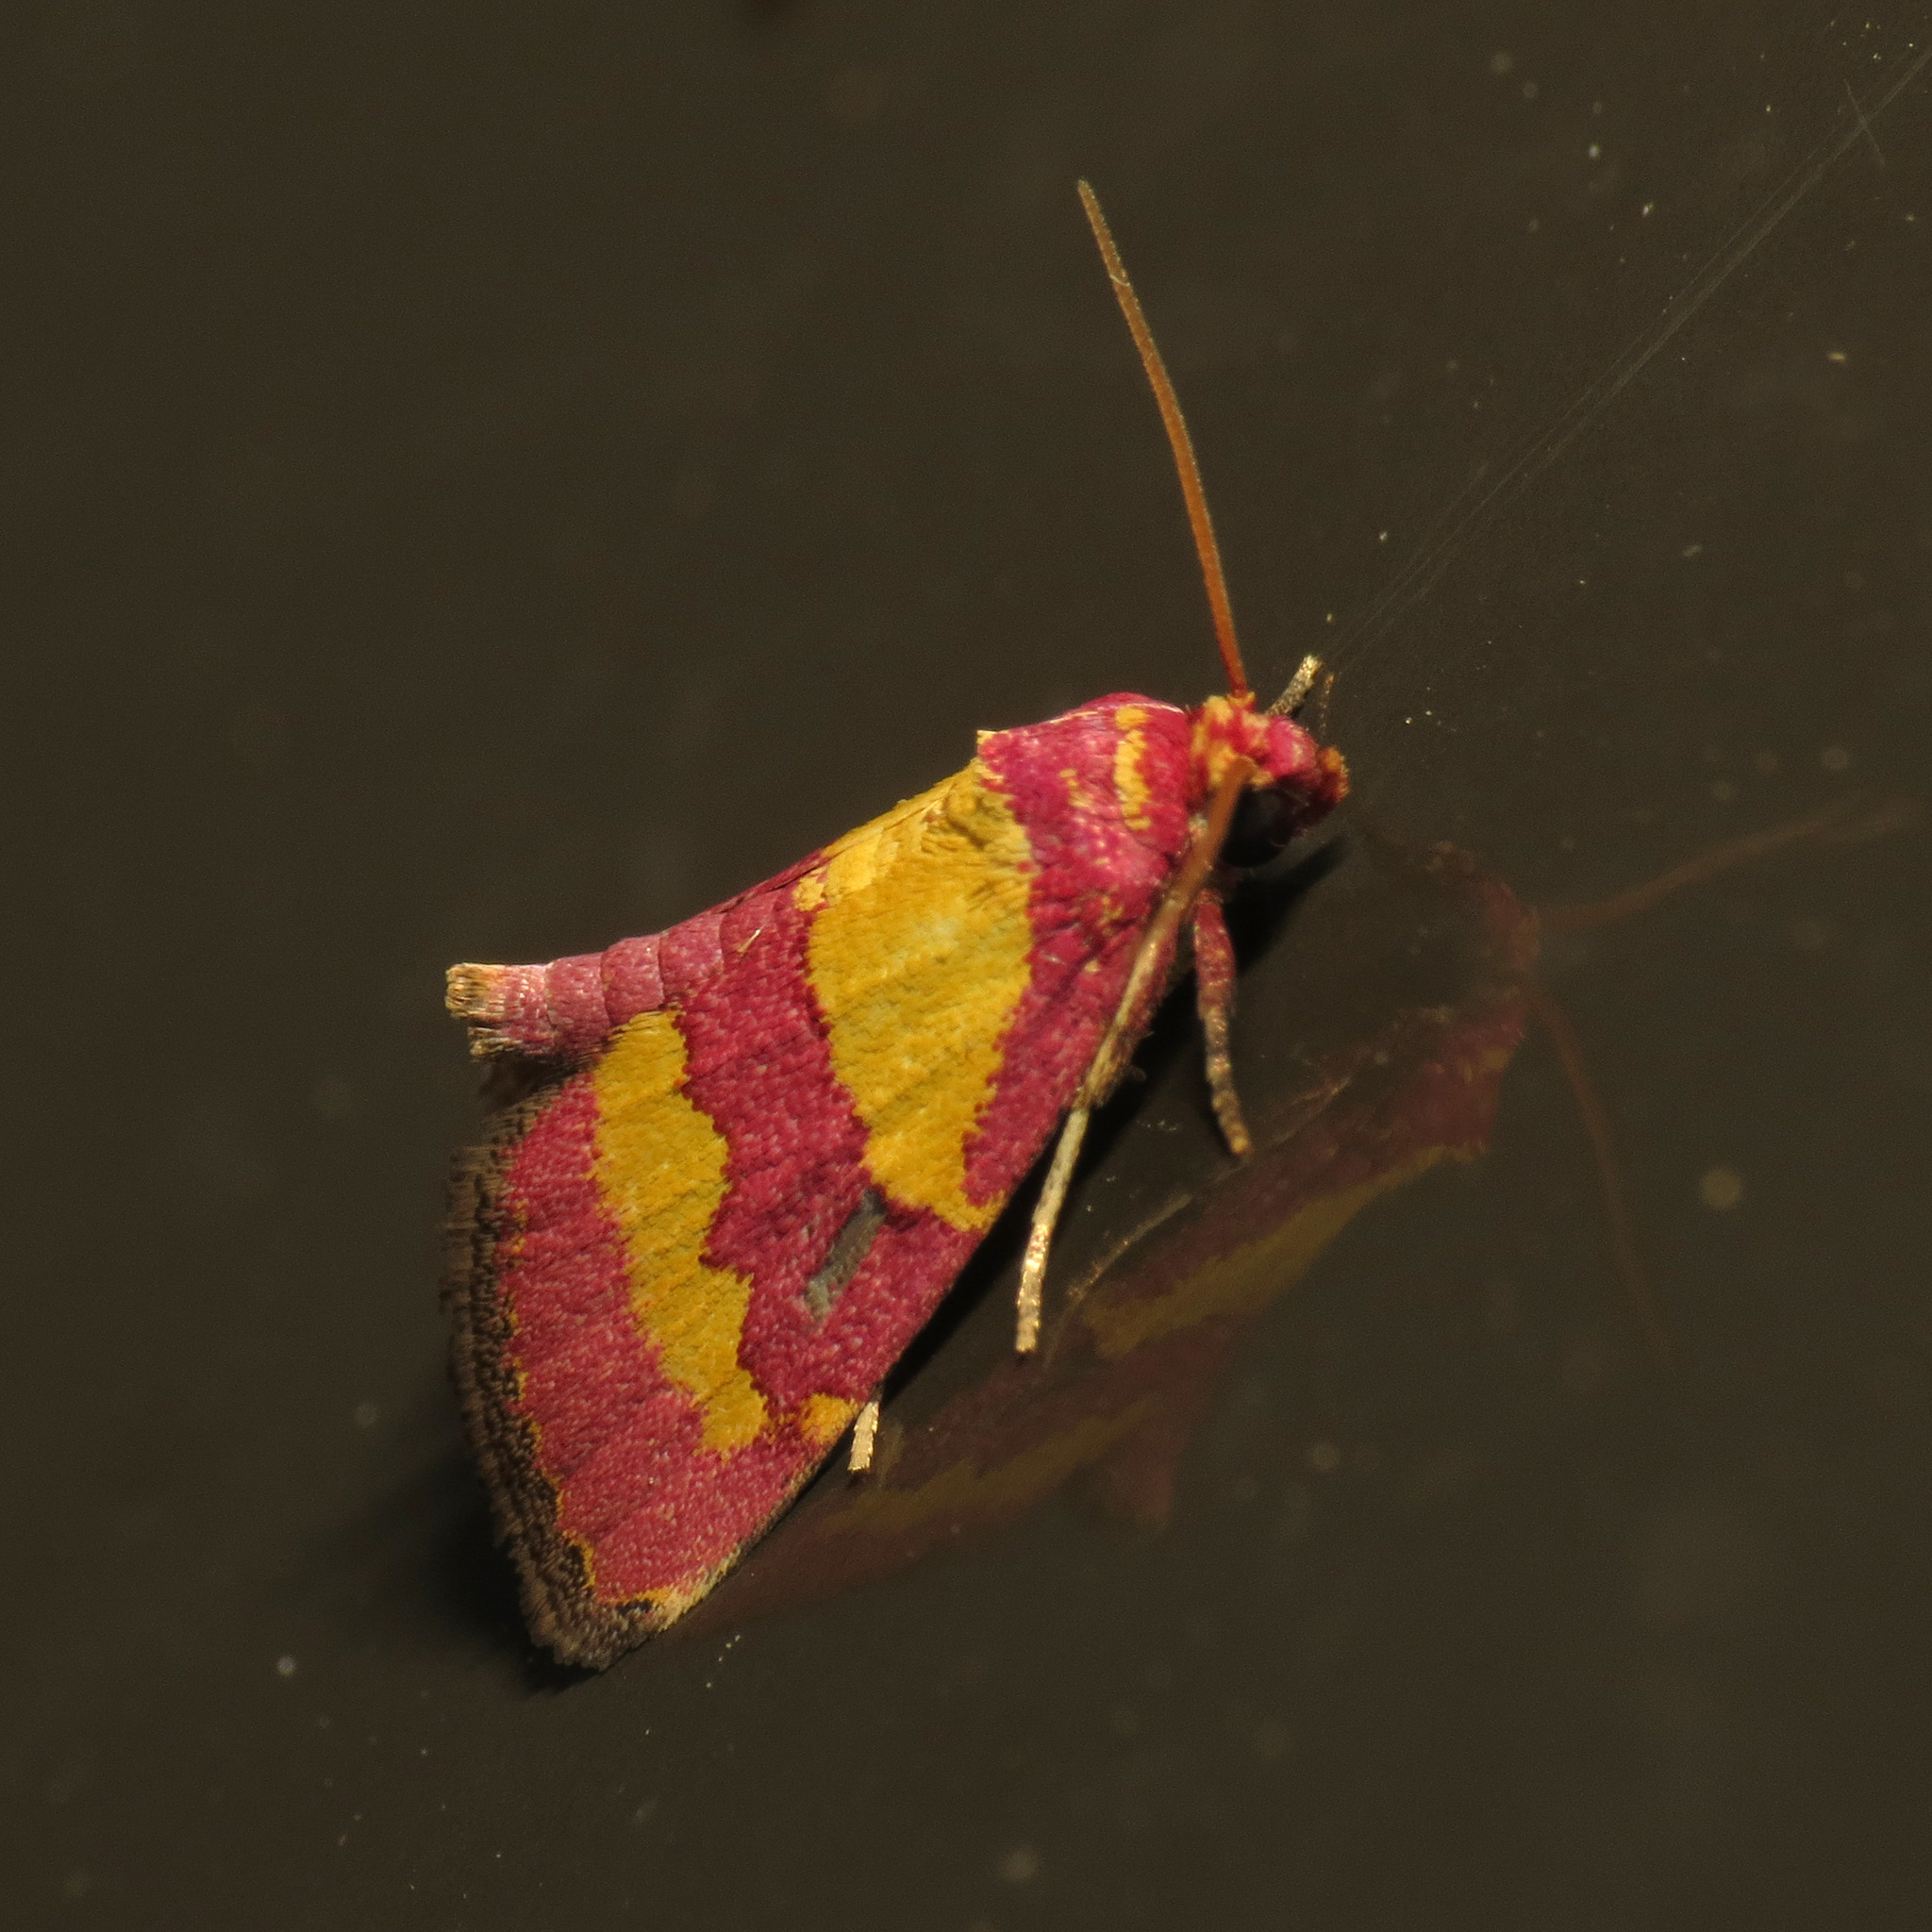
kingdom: Animalia
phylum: Arthropoda
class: Insecta
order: Lepidoptera
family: Noctuidae
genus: Phoenicophanta
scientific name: Phoenicophanta bicolor
